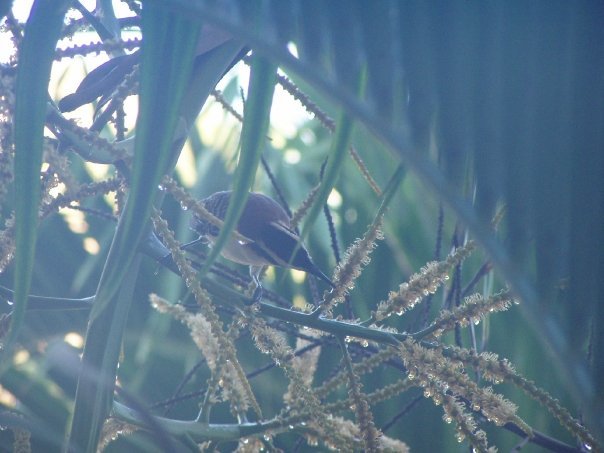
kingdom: Animalia
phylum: Chordata
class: Aves
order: Passeriformes
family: Troglodytidae
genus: Campylorhynchus
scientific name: Campylorhynchus rufinucha
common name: Rufous-naped wren
